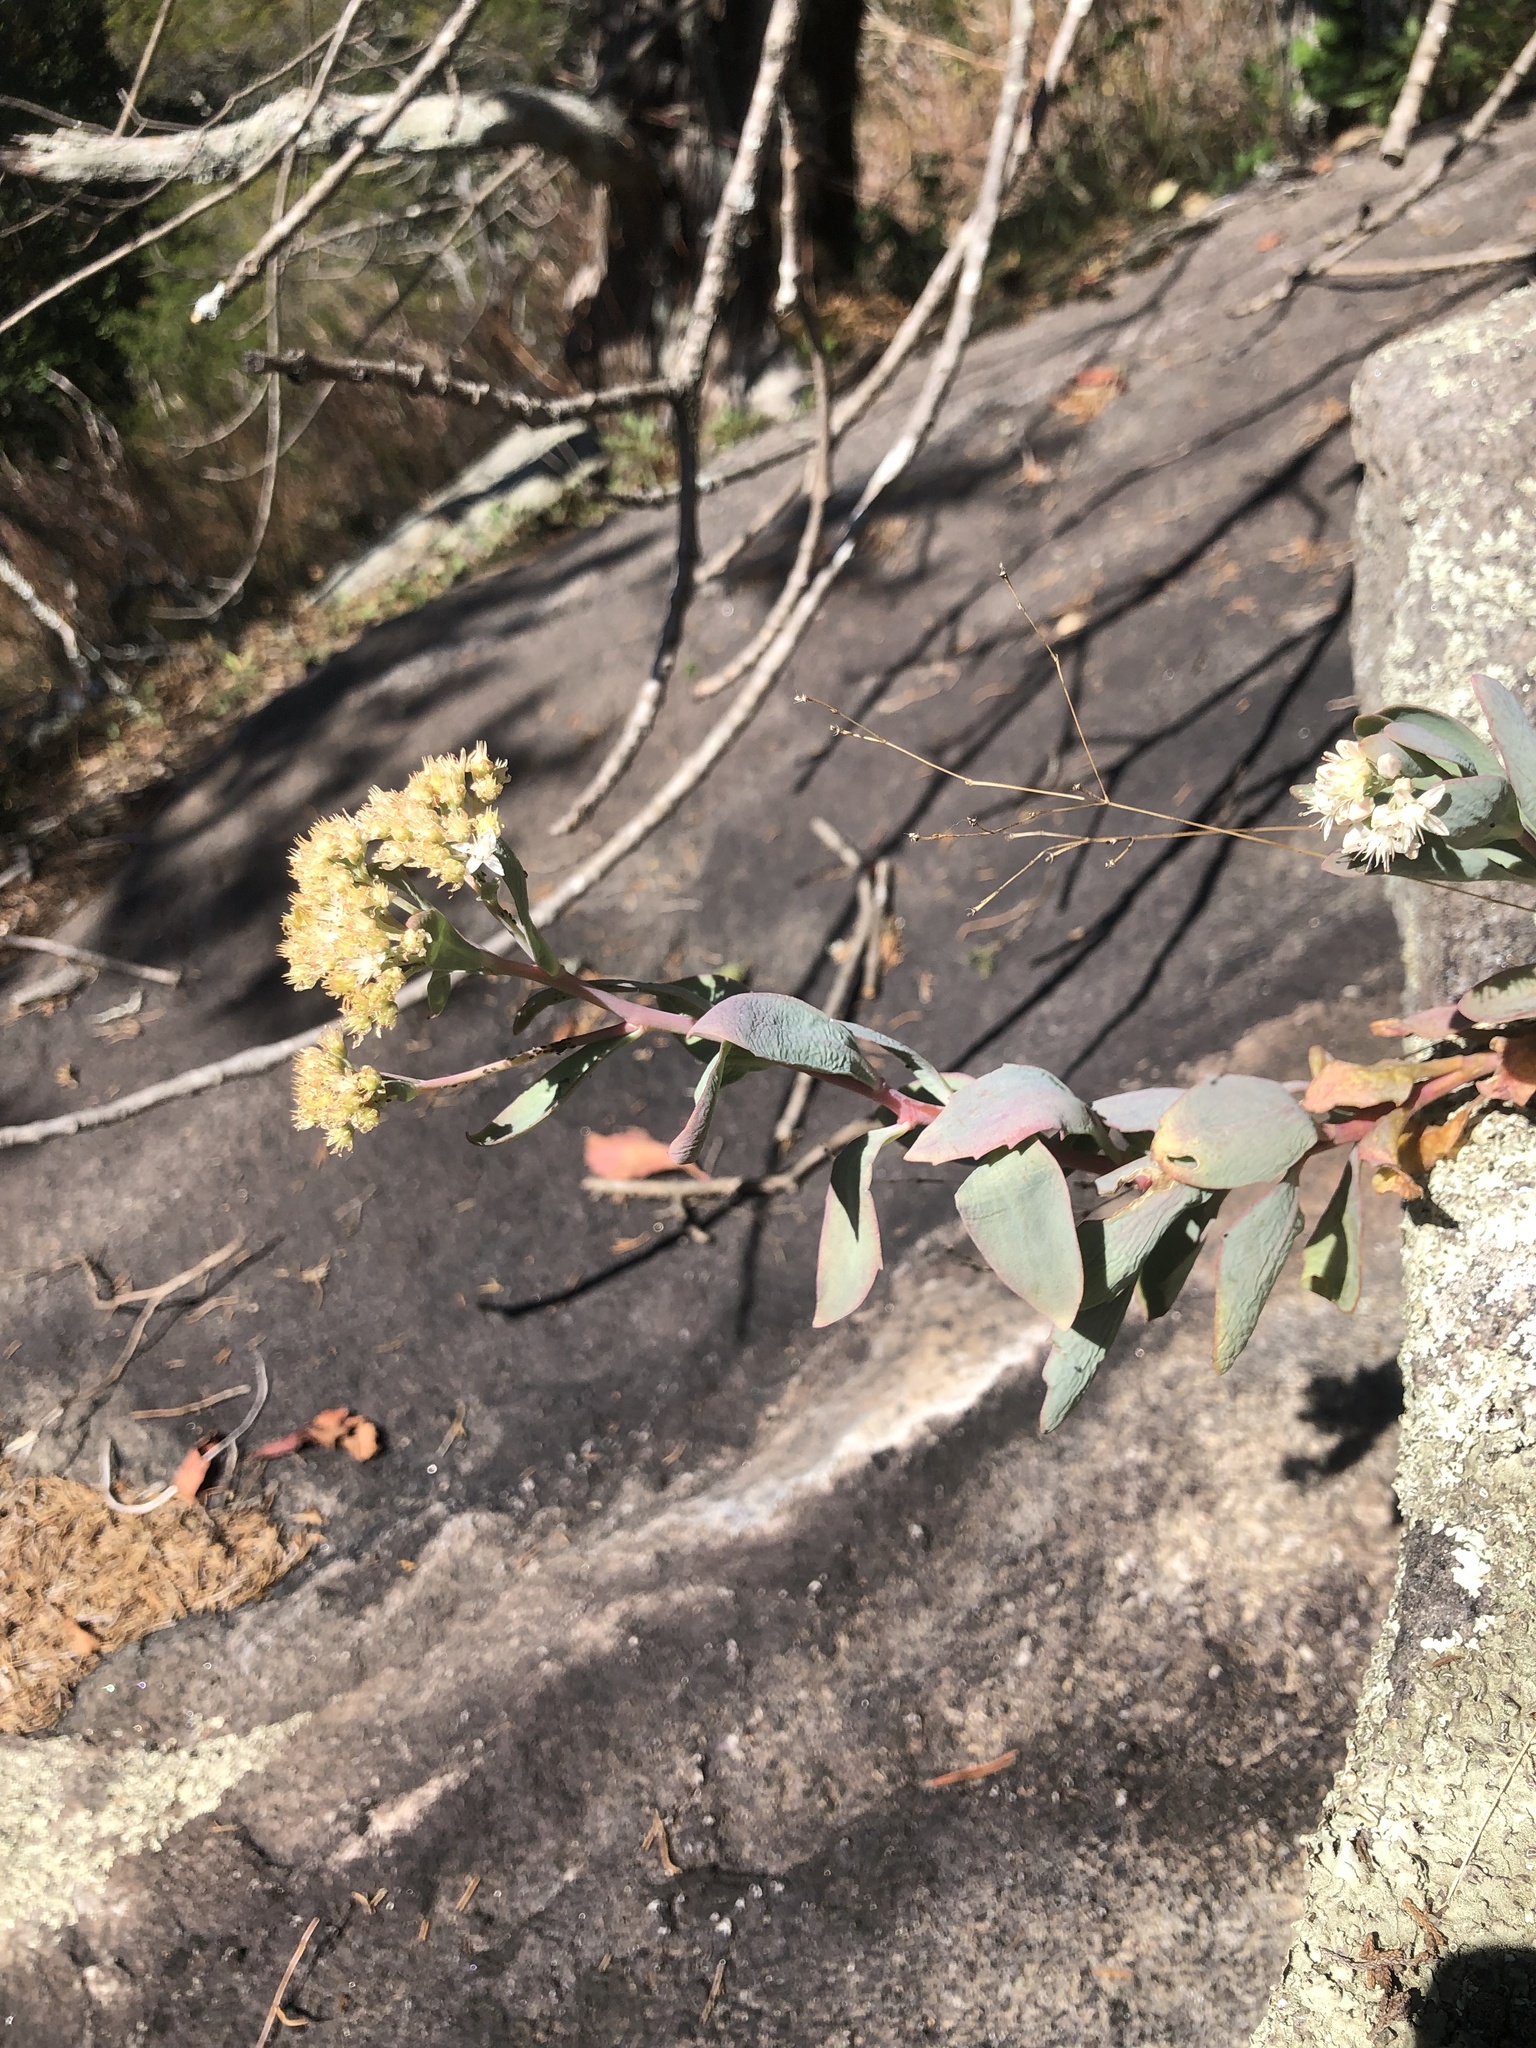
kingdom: Plantae
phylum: Tracheophyta
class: Magnoliopsida
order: Saxifragales
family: Crassulaceae
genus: Hylotelephium
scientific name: Hylotelephium telephioides
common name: Allegheny stonecrop
